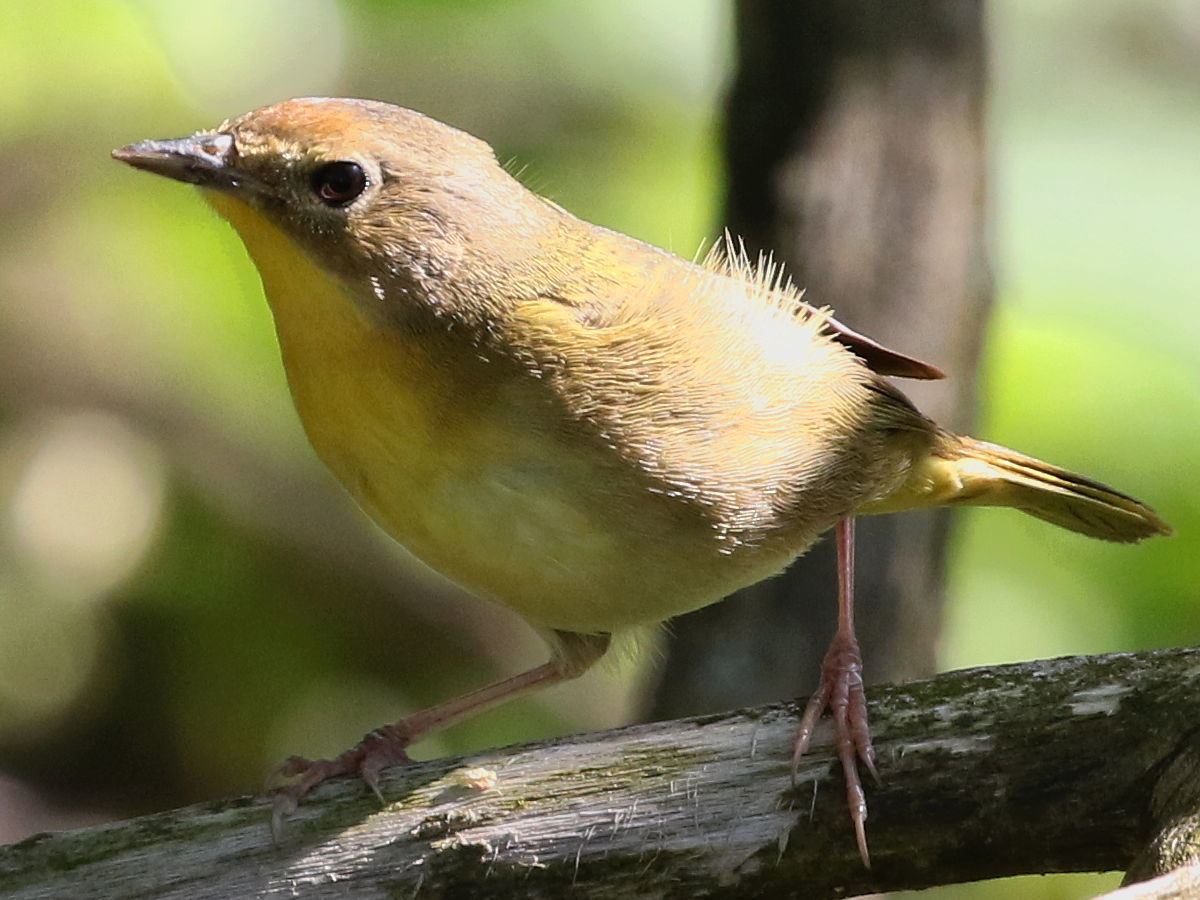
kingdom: Animalia
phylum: Chordata
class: Aves
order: Passeriformes
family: Parulidae
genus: Geothlypis
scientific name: Geothlypis trichas
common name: Common yellowthroat
